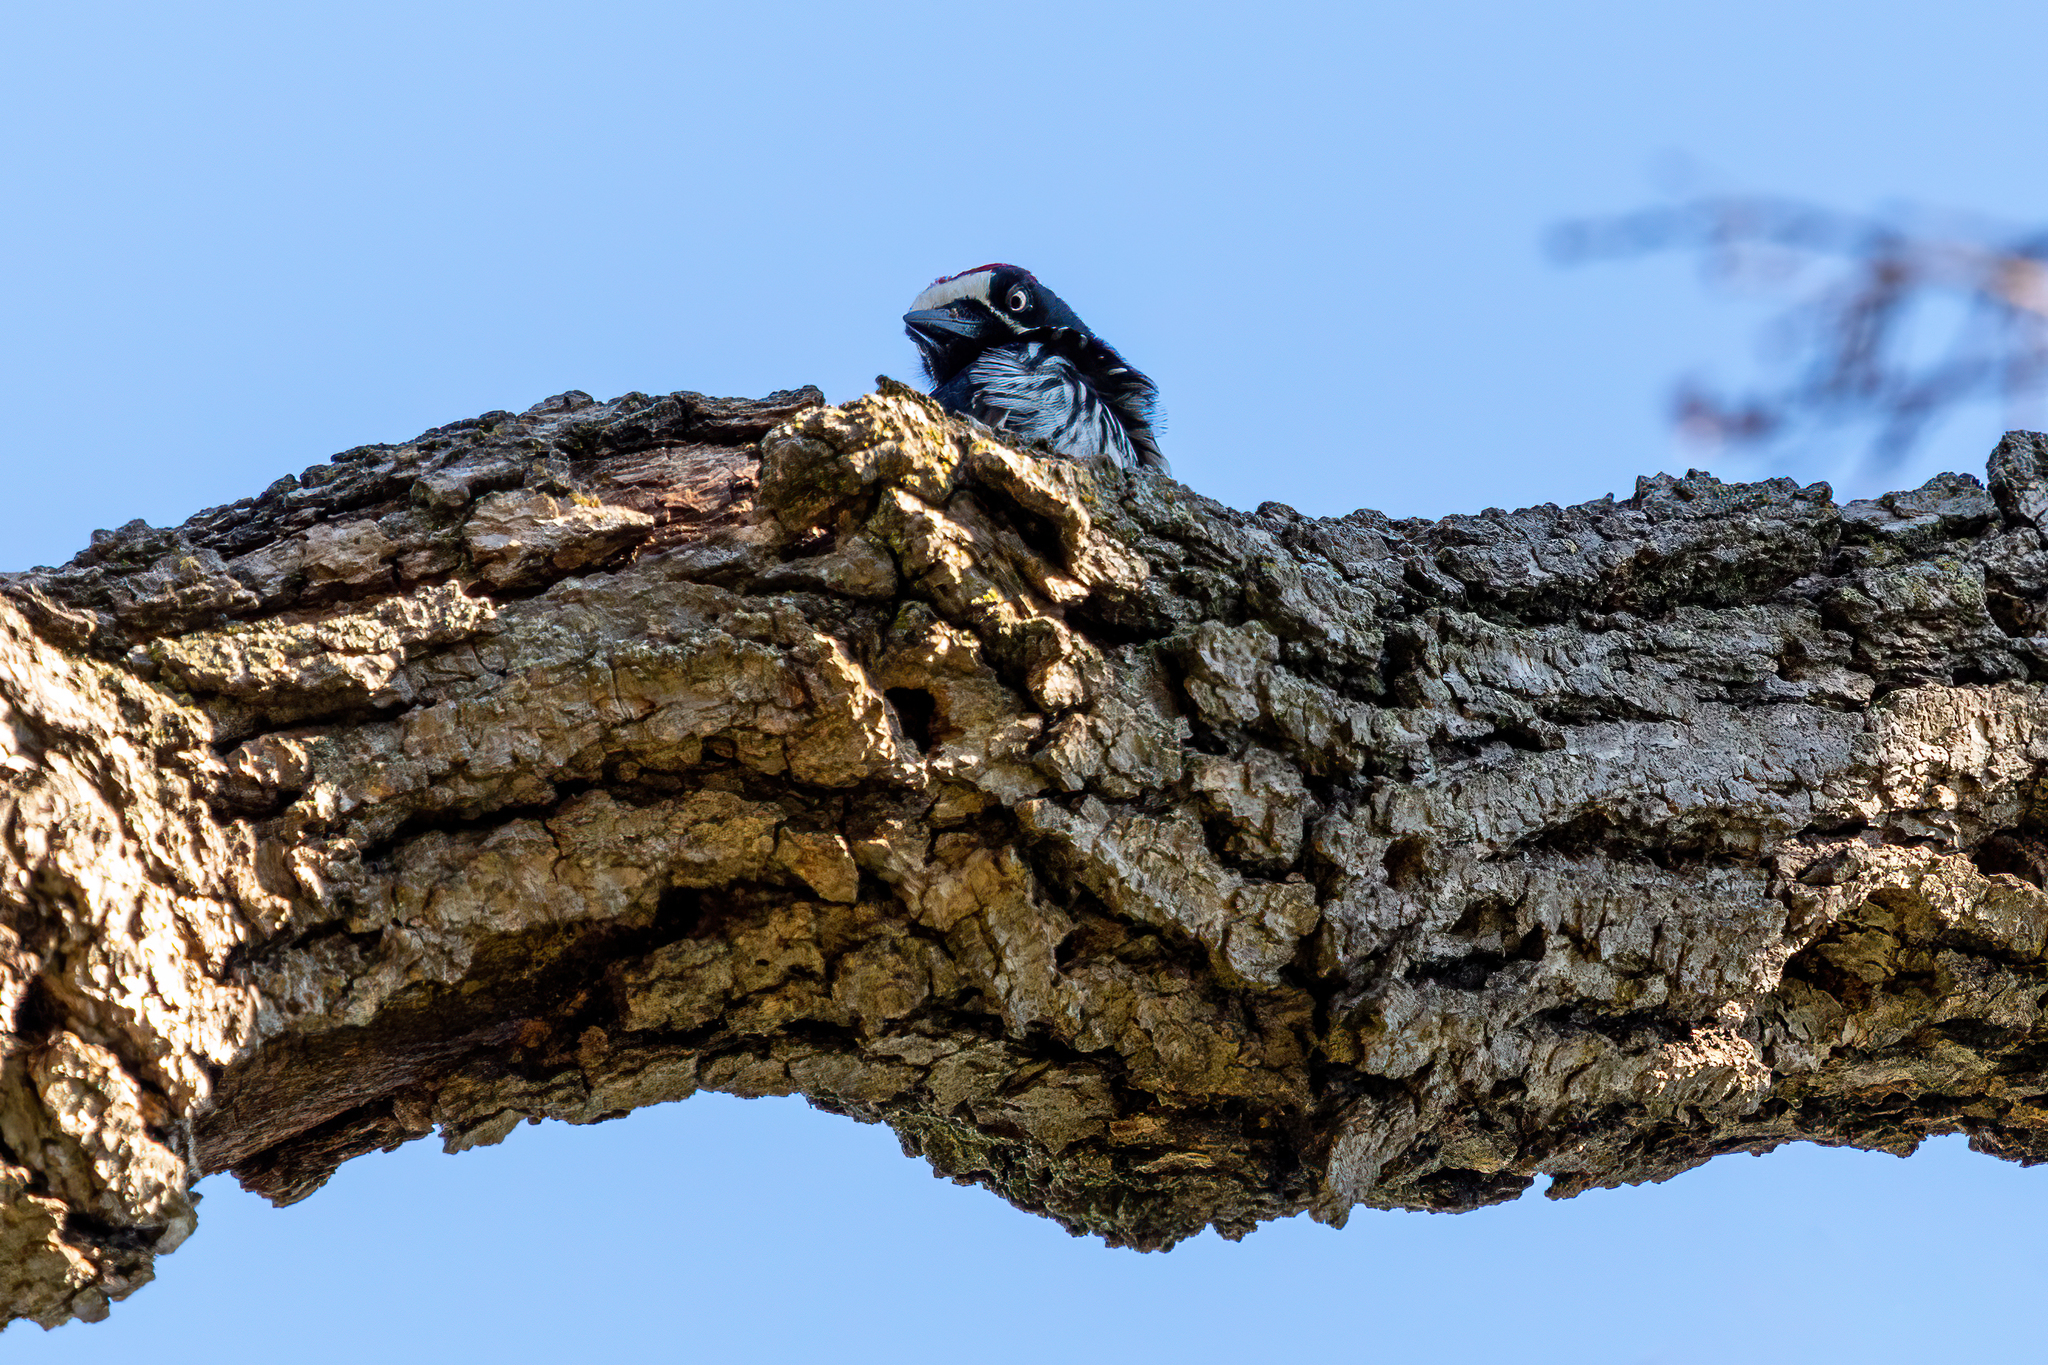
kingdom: Animalia
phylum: Chordata
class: Aves
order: Piciformes
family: Picidae
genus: Melanerpes
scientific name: Melanerpes formicivorus
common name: Acorn woodpecker
